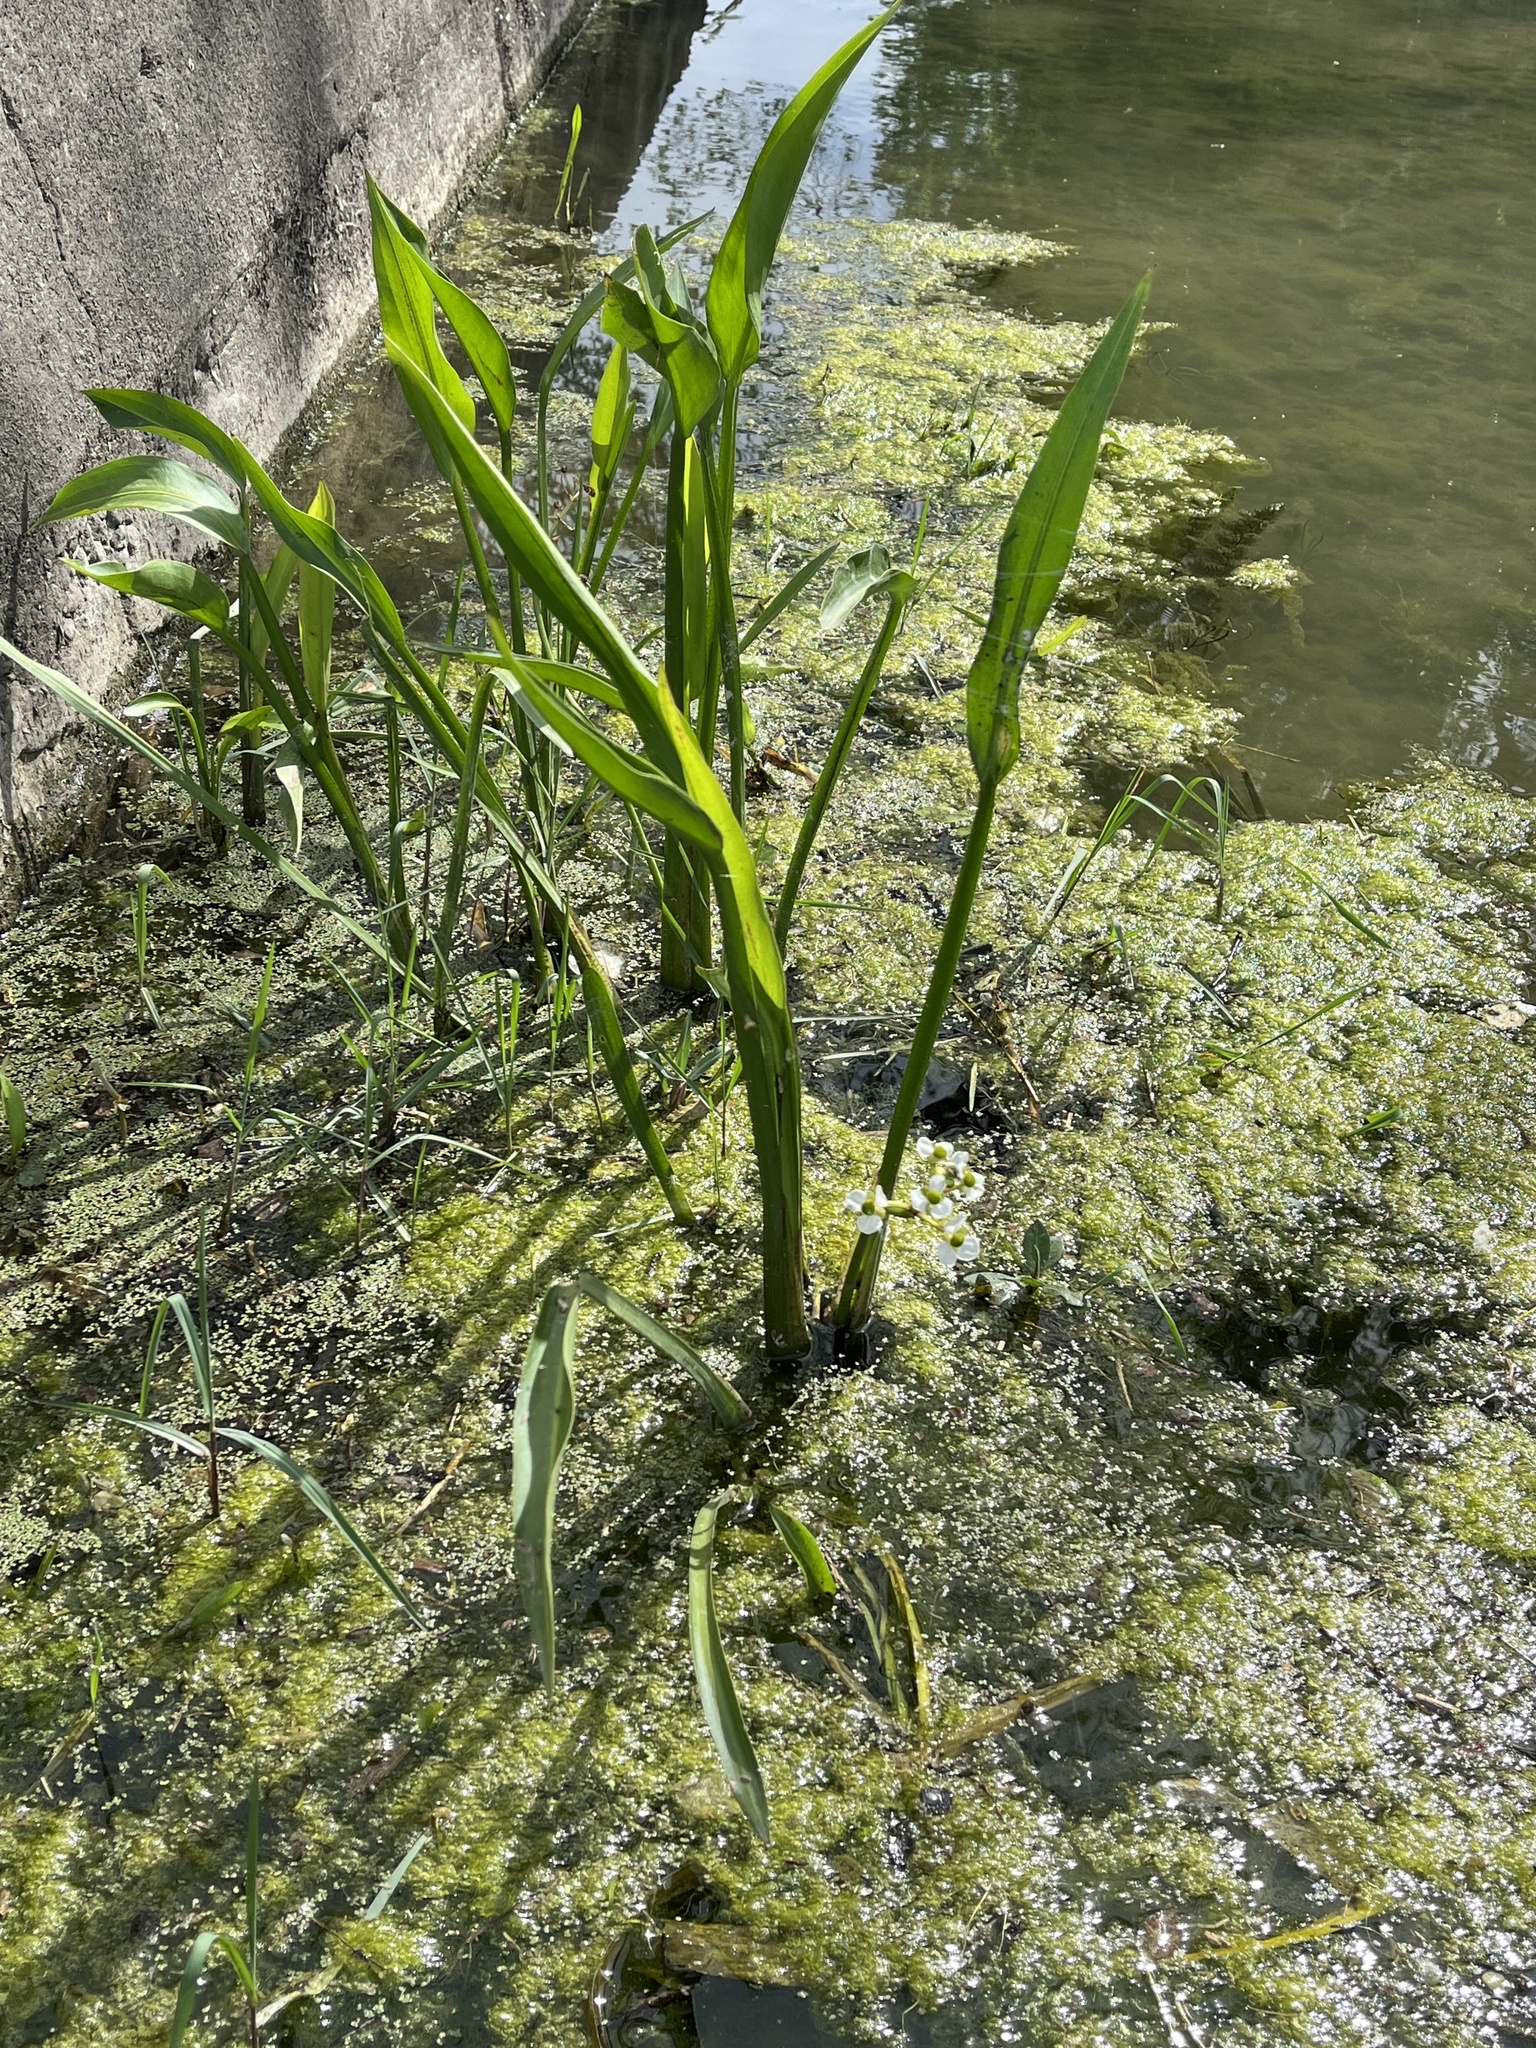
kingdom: Plantae
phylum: Tracheophyta
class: Liliopsida
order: Alismatales
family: Alismataceae
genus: Sagittaria
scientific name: Sagittaria platyphylla
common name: Broad-leaf arrowhead
